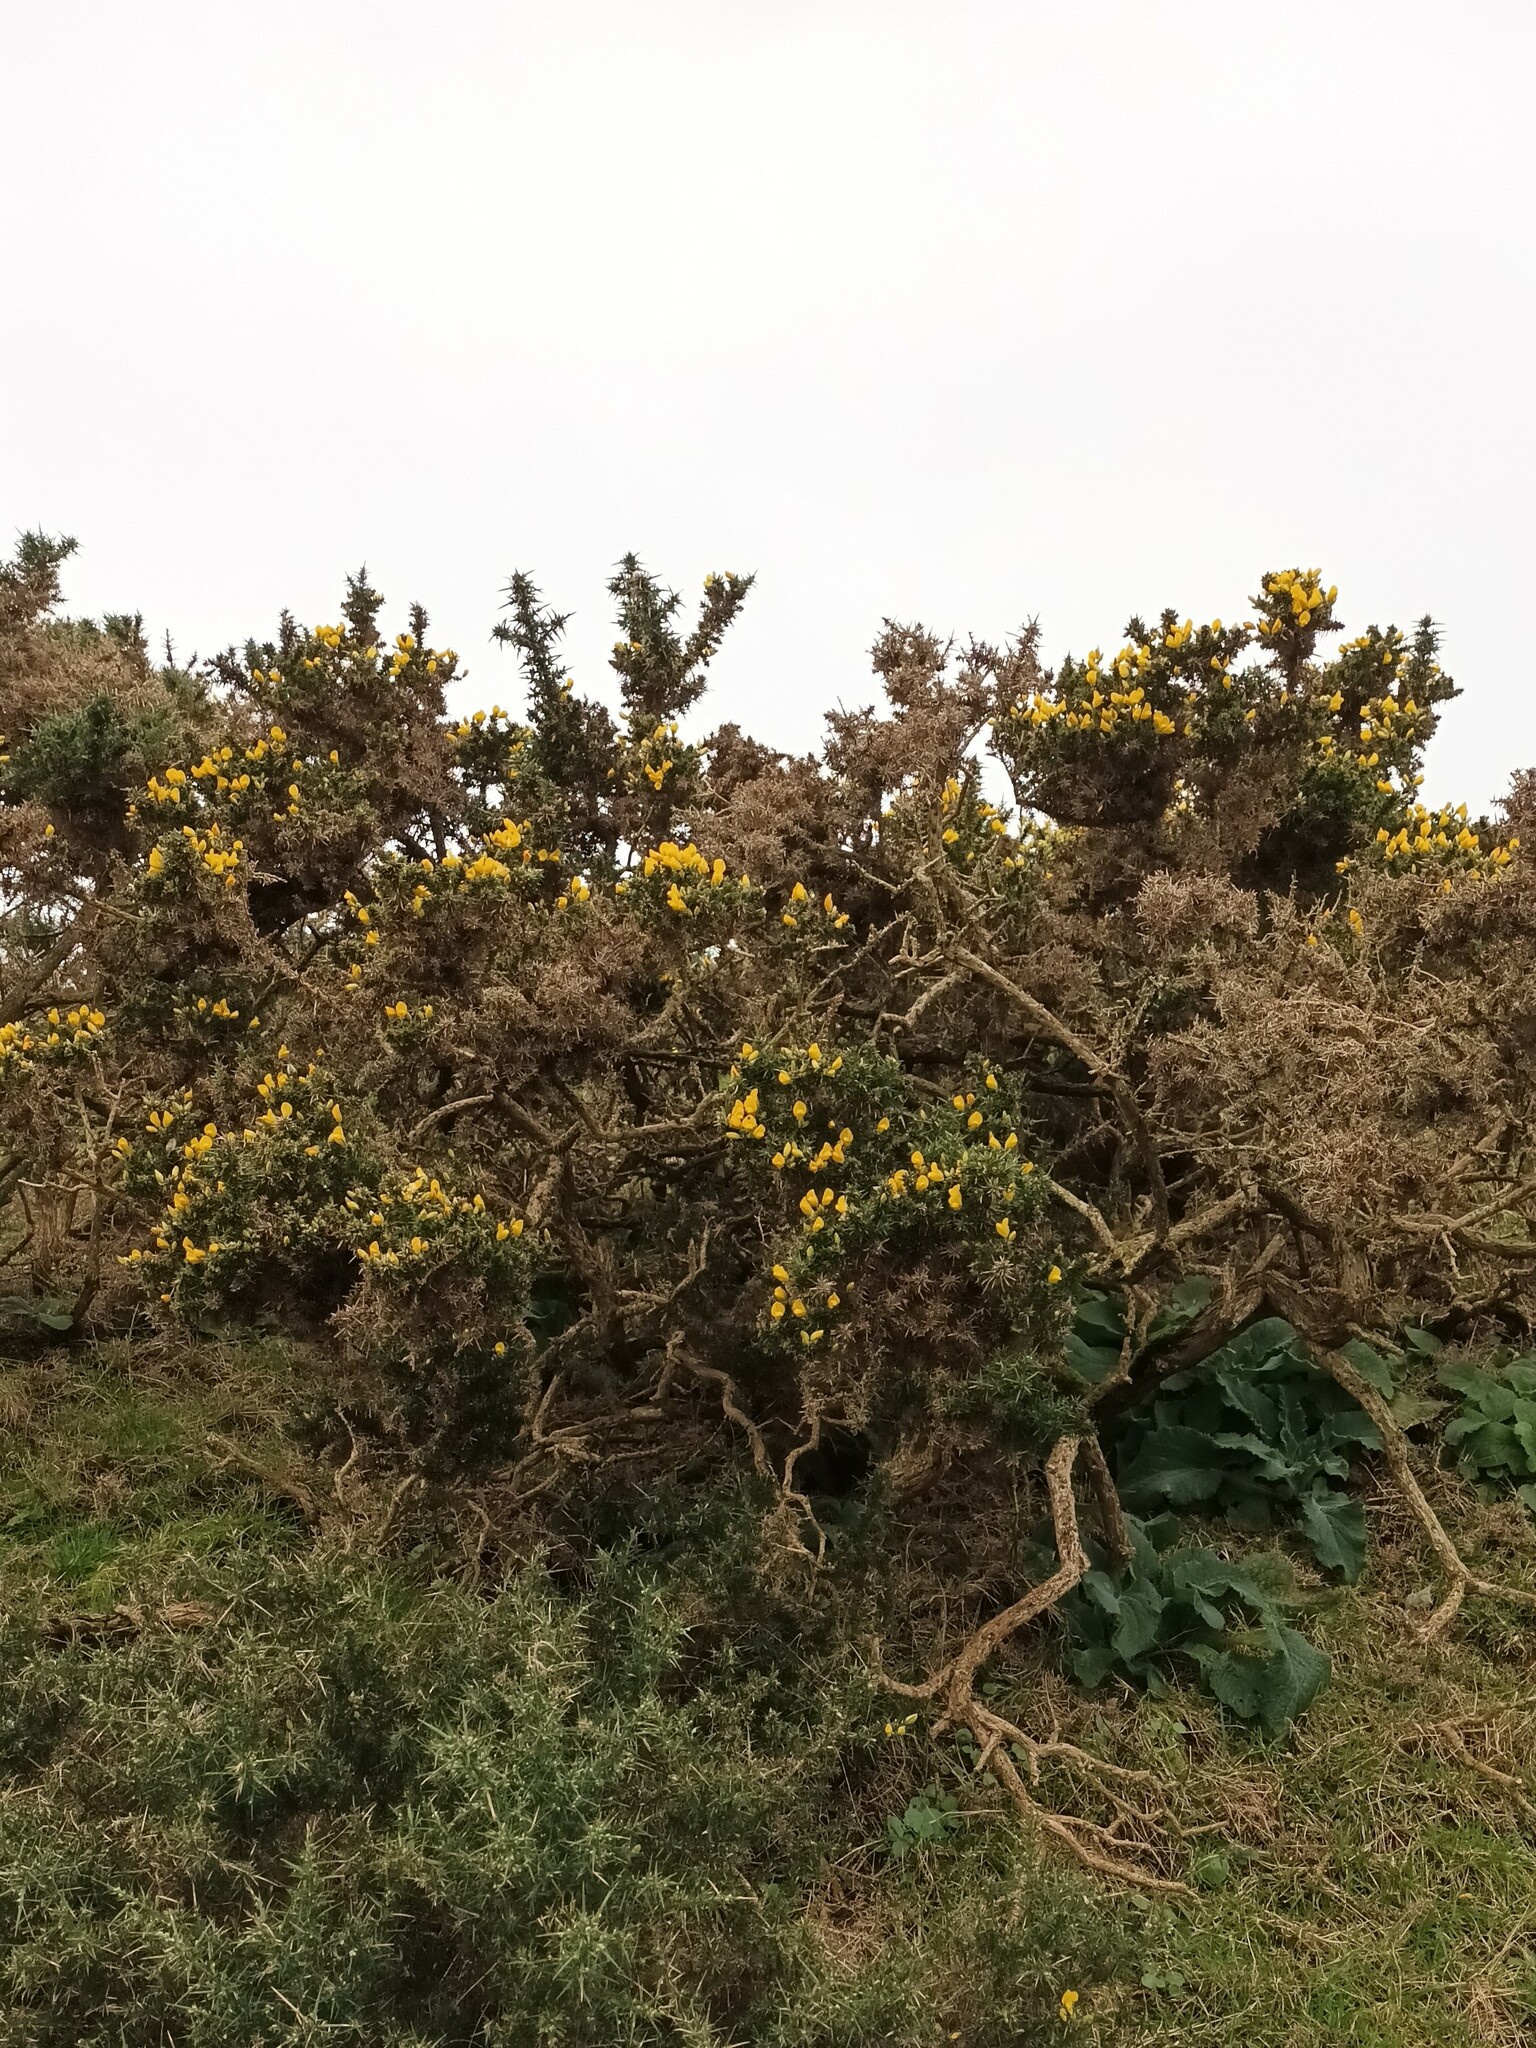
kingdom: Plantae
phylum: Tracheophyta
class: Magnoliopsida
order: Fabales
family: Fabaceae
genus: Ulex
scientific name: Ulex europaeus
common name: Common gorse
